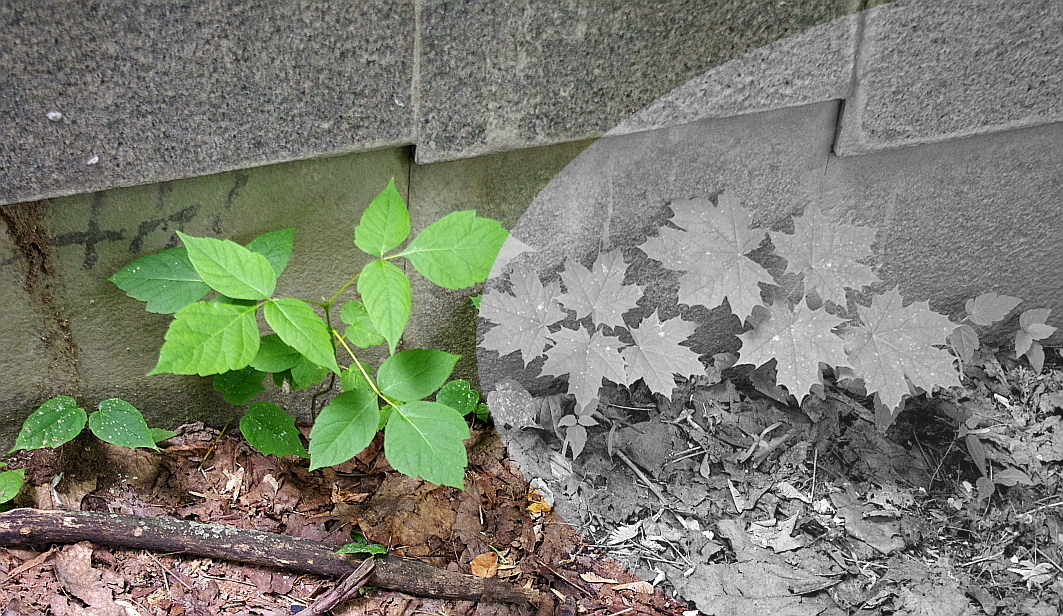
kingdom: Plantae
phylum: Tracheophyta
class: Magnoliopsida
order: Sapindales
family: Sapindaceae
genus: Acer
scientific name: Acer negundo
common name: Ashleaf maple
